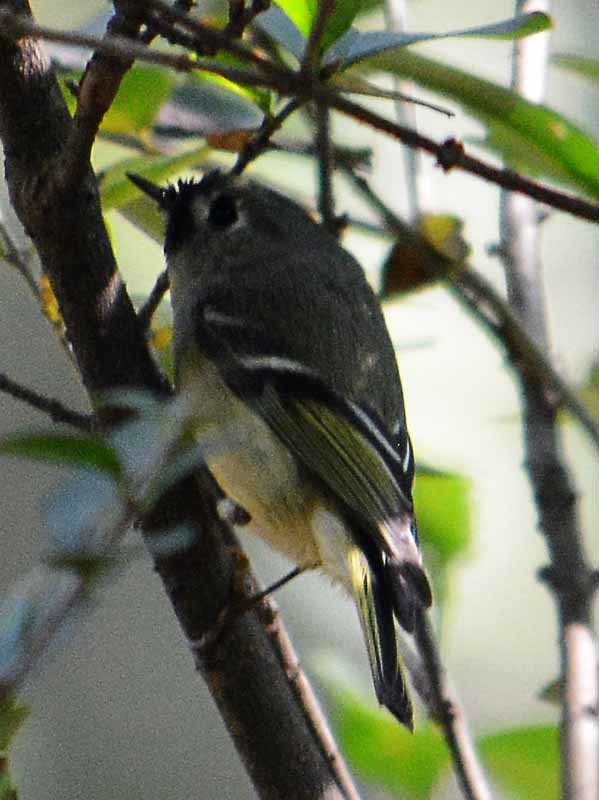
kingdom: Animalia
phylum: Chordata
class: Aves
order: Passeriformes
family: Regulidae
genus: Regulus
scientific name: Regulus calendula
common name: Ruby-crowned kinglet
